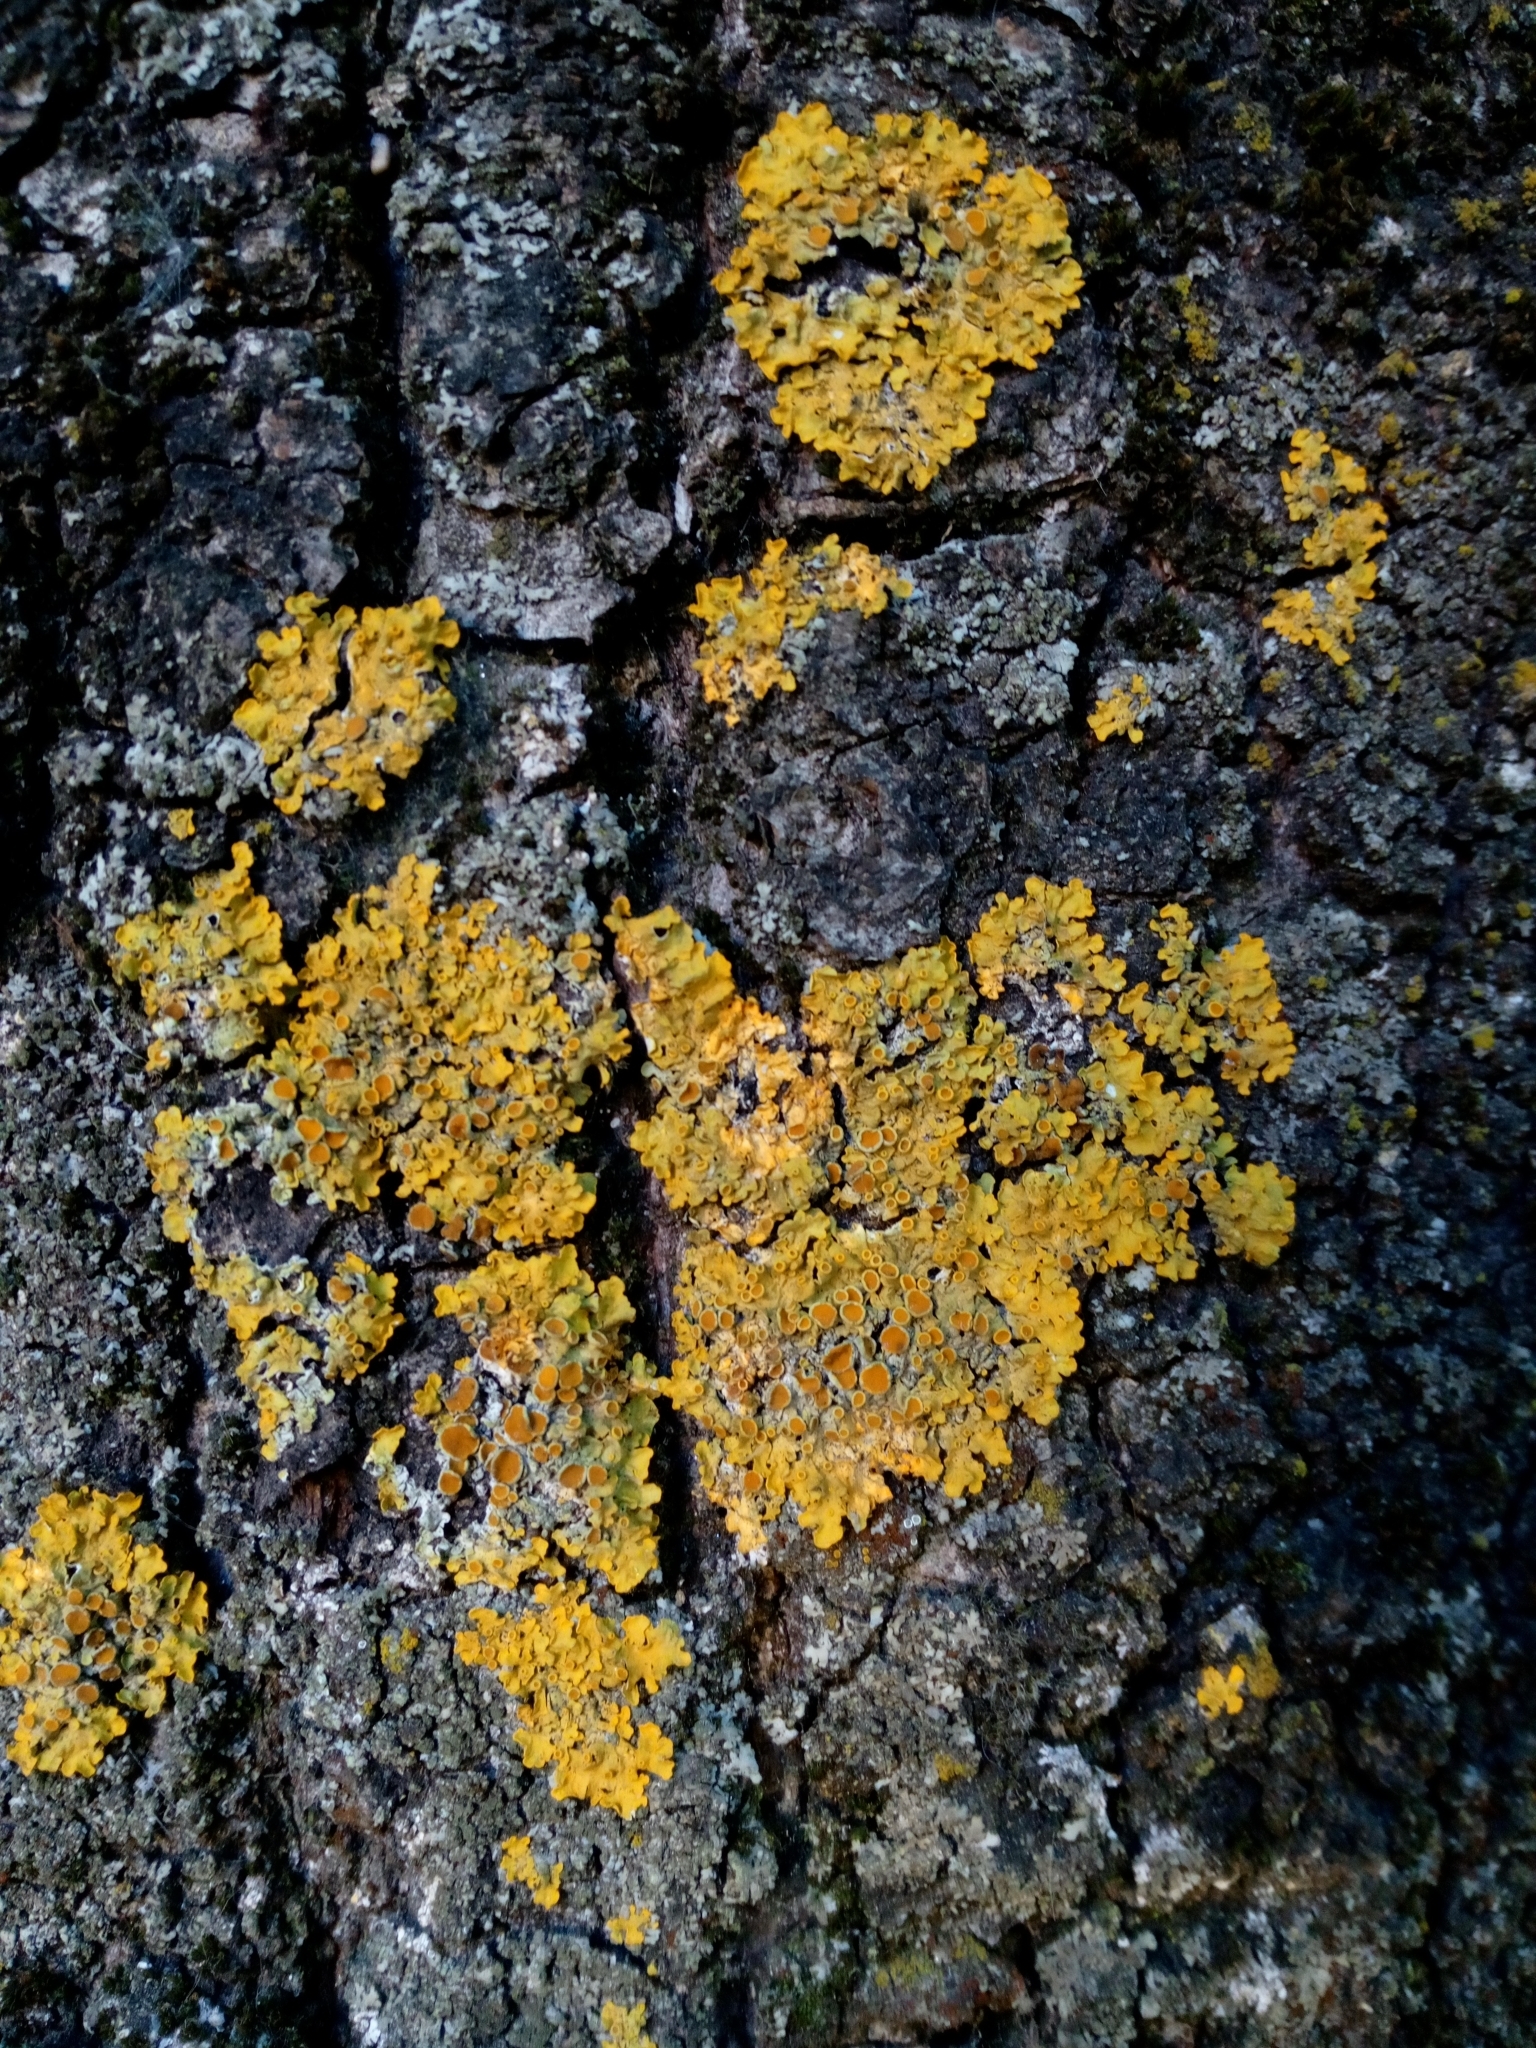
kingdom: Fungi
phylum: Ascomycota
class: Lecanoromycetes
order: Teloschistales
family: Teloschistaceae
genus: Xanthoria
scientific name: Xanthoria parietina
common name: Common orange lichen
